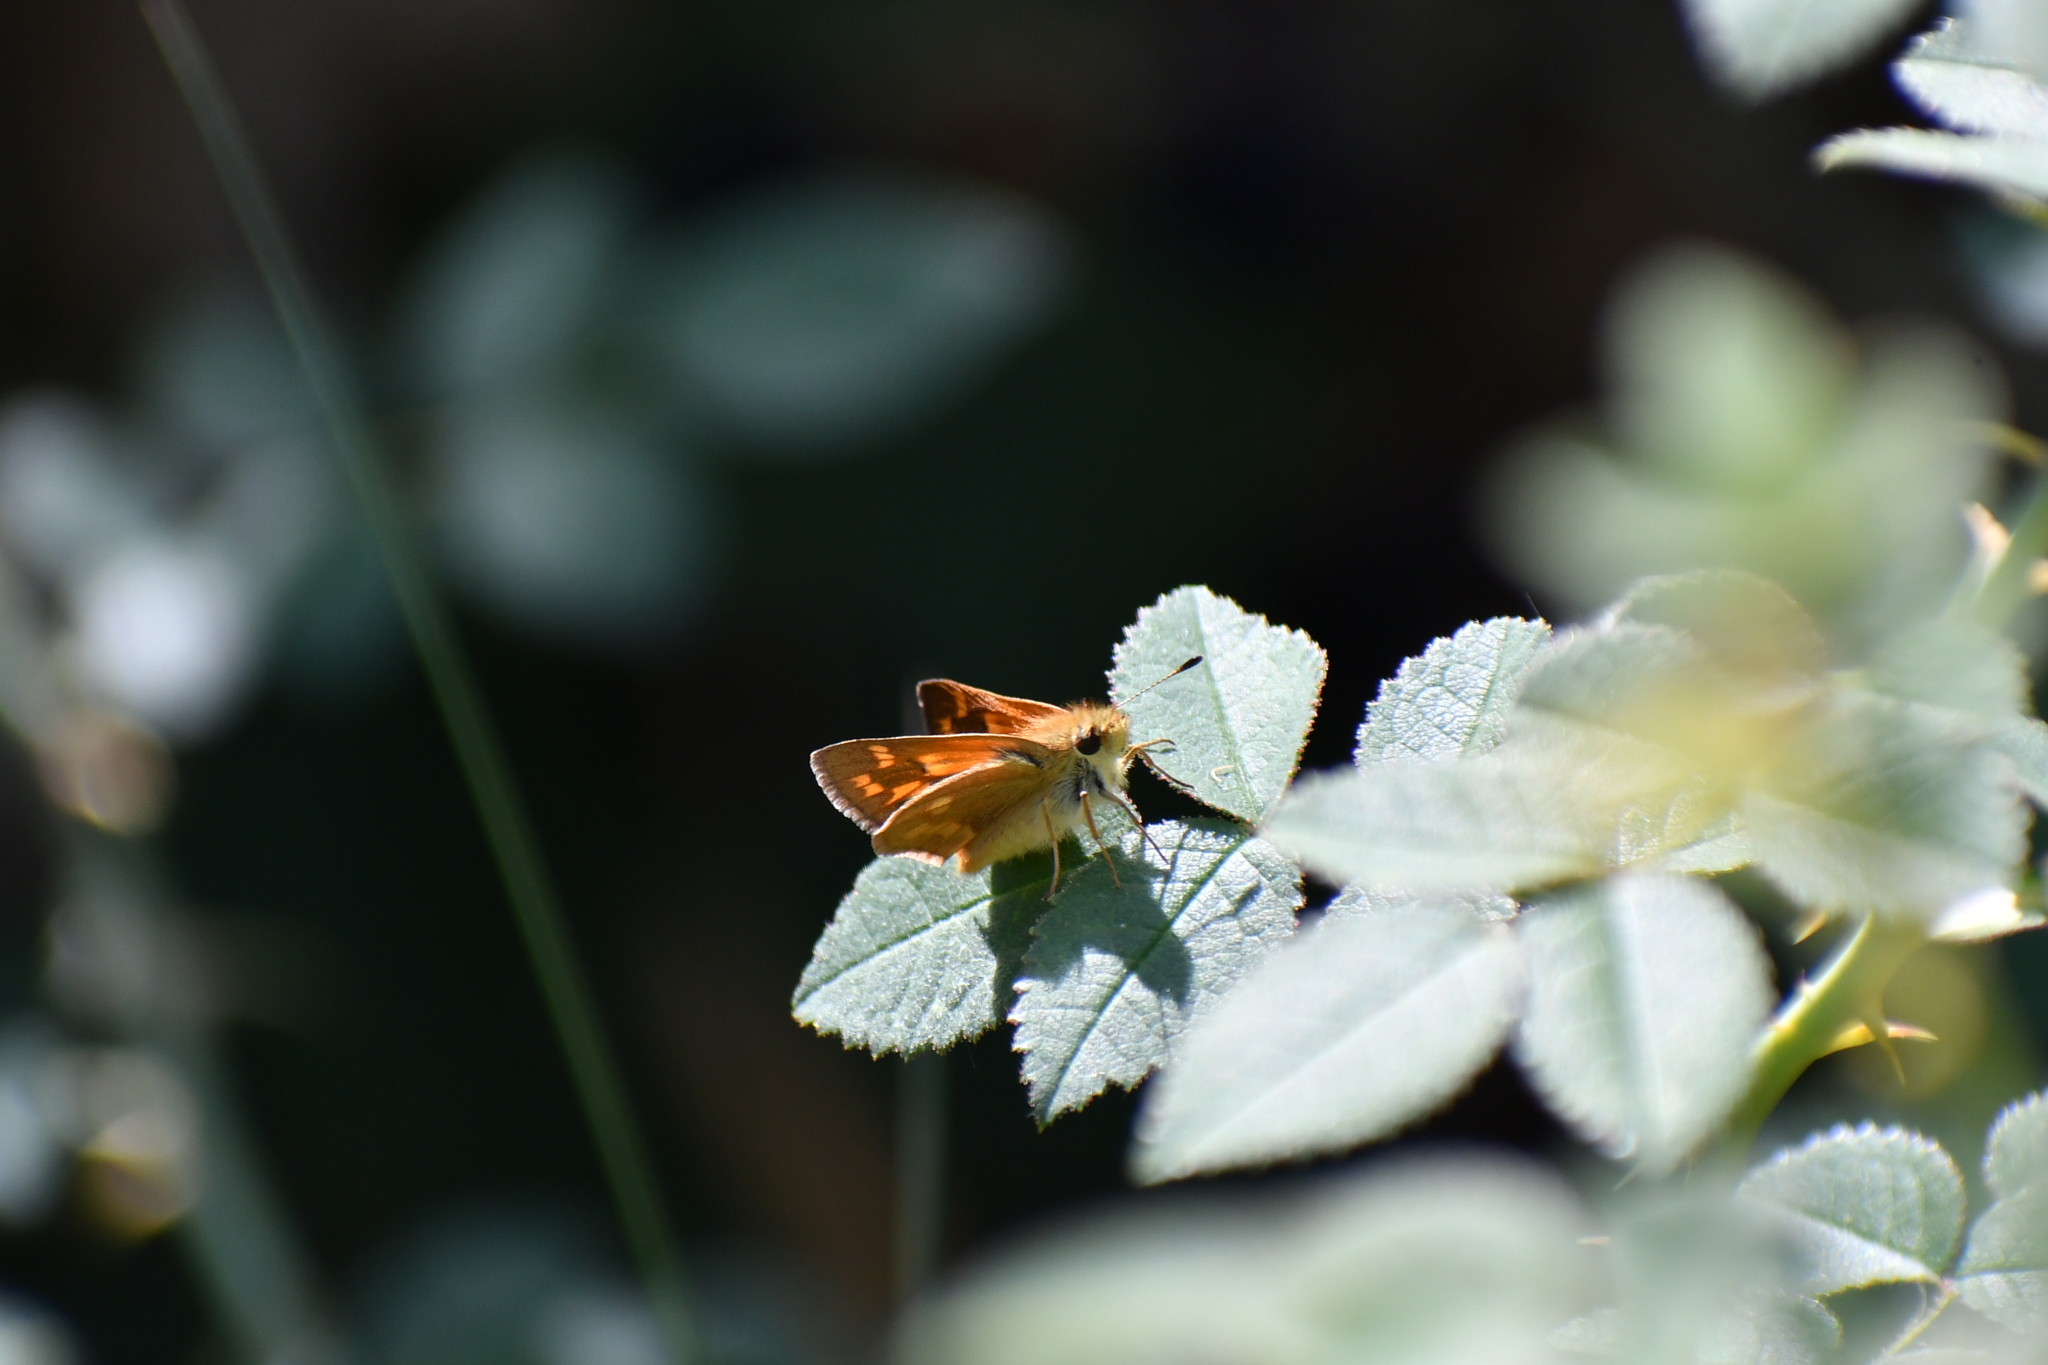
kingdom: Animalia
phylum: Arthropoda
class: Insecta
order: Lepidoptera
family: Hesperiidae
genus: Ochlodes
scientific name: Ochlodes sylvanoides
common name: Woodland skipper
